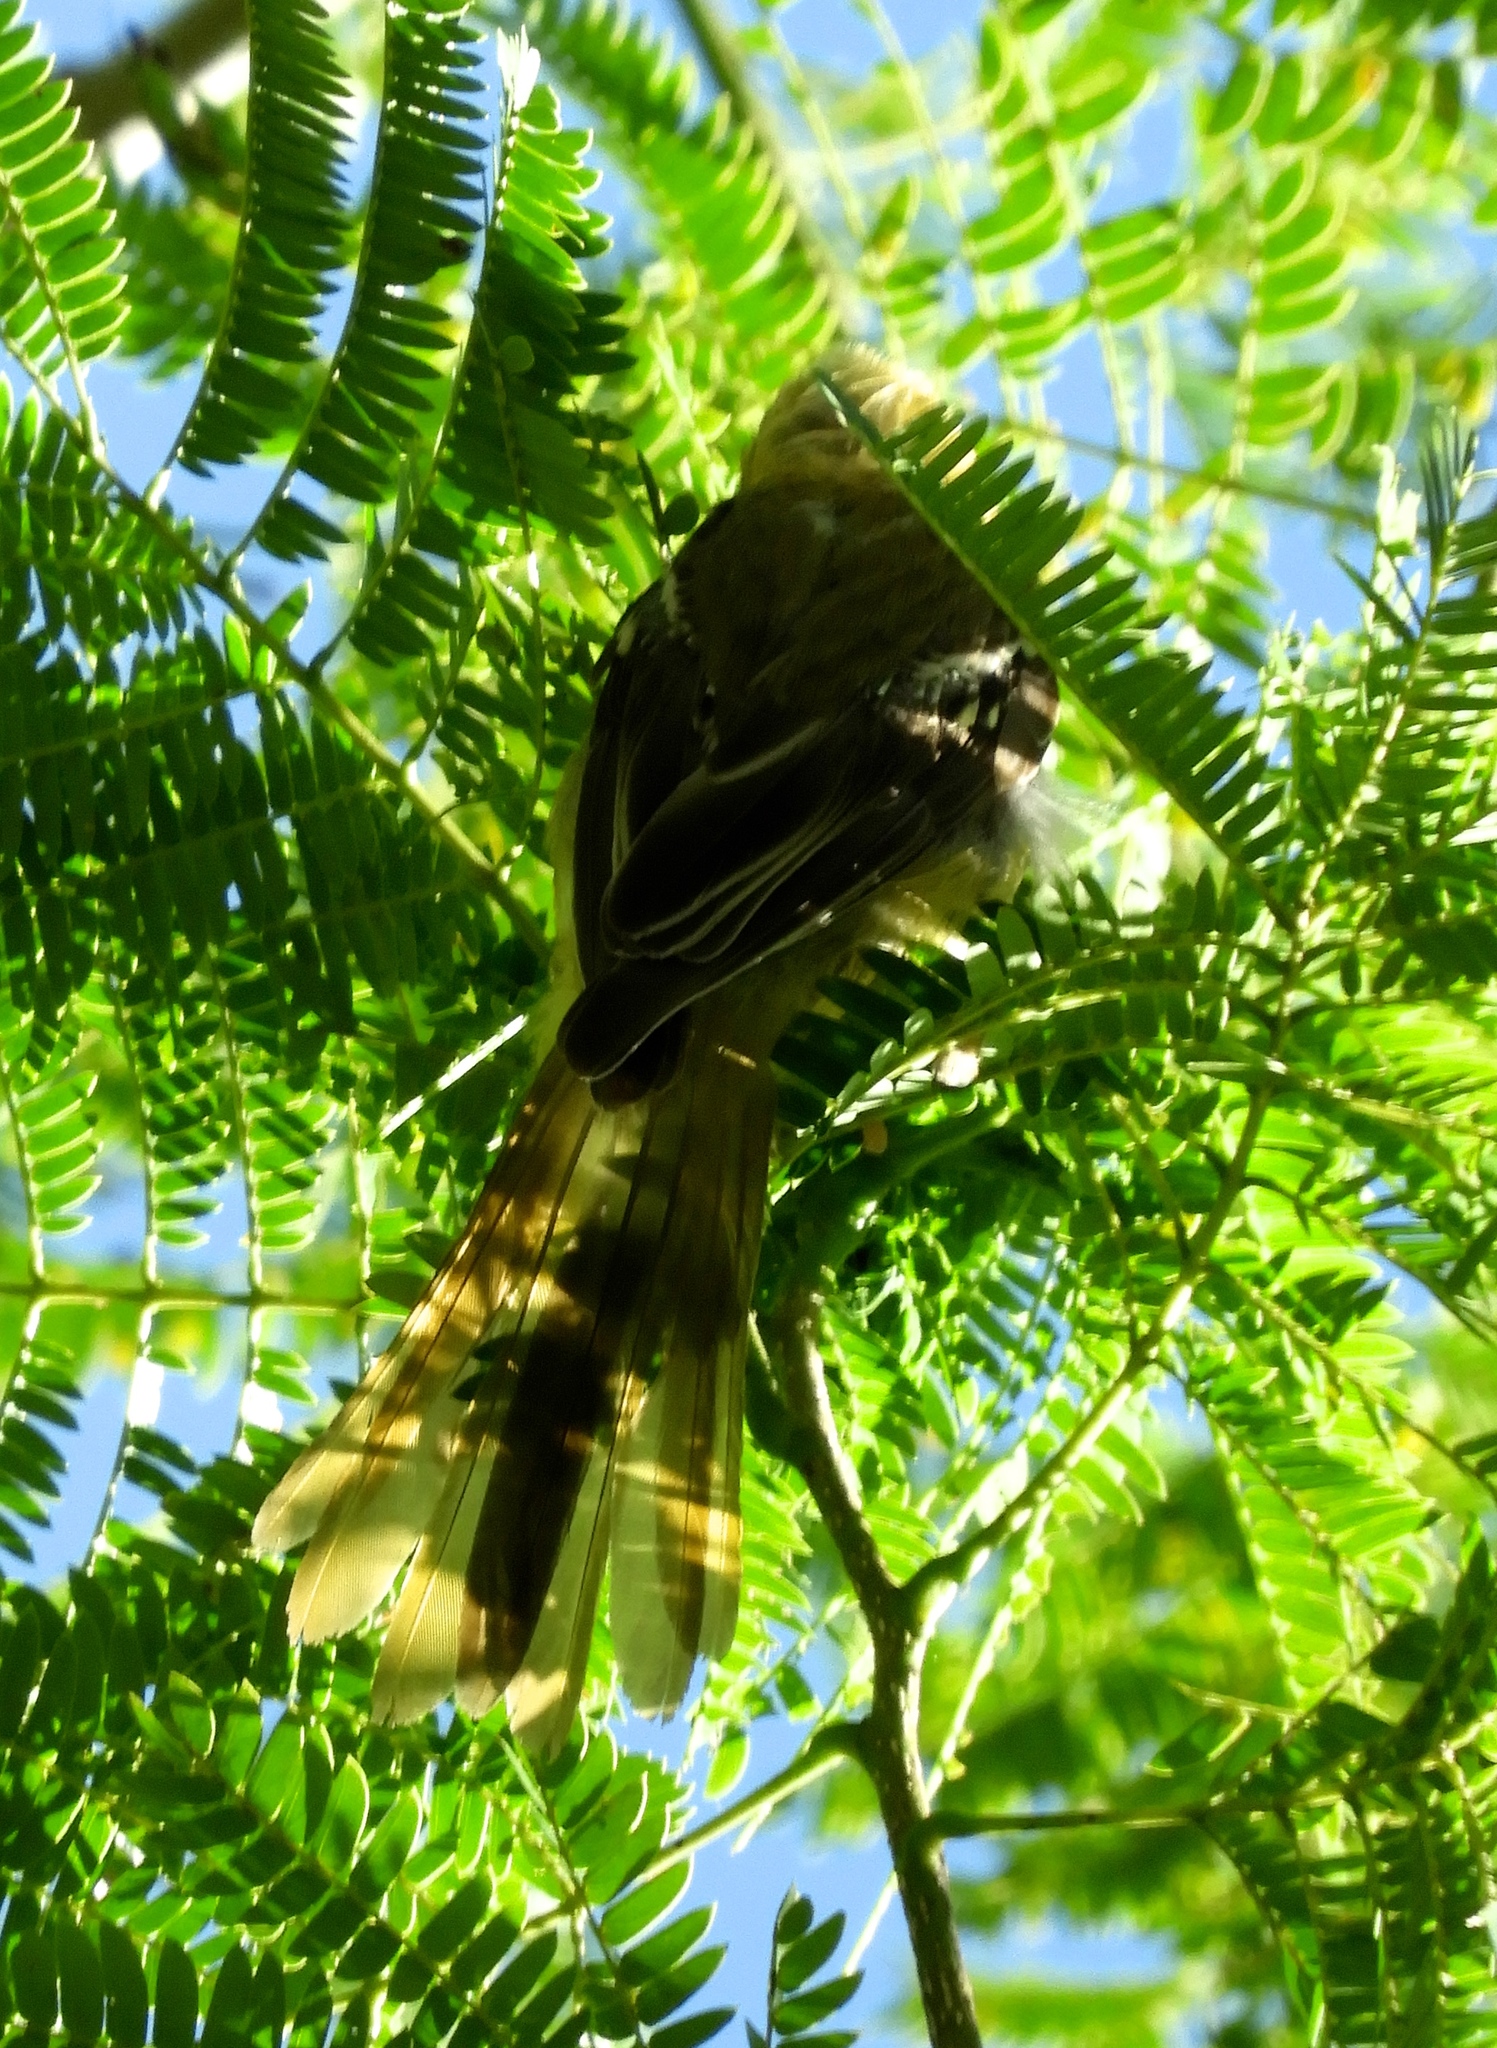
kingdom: Animalia
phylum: Chordata
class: Aves
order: Passeriformes
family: Icteridae
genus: Icterus
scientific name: Icterus spurius
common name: Orchard oriole
